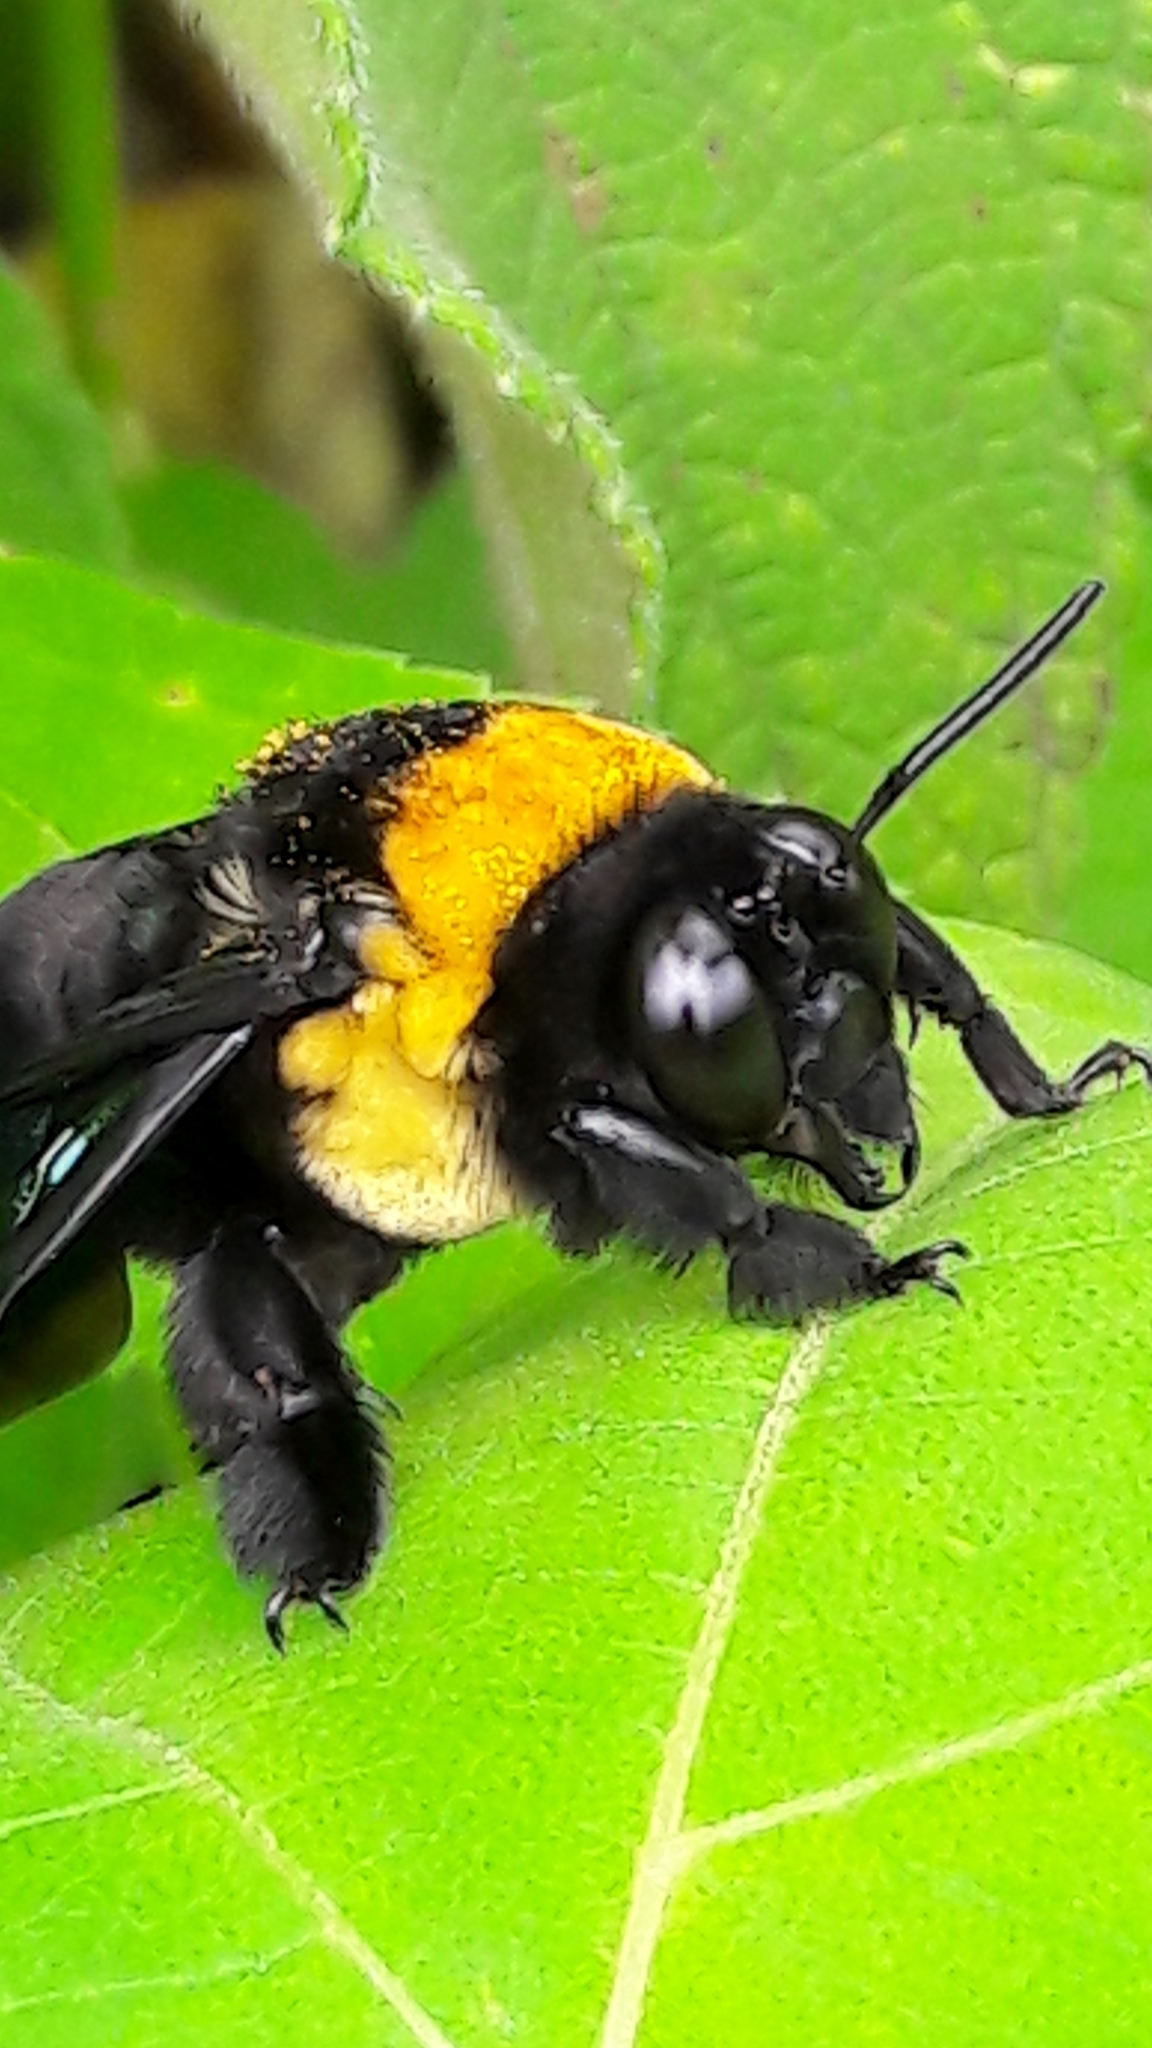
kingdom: Animalia
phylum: Arthropoda
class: Insecta
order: Hymenoptera
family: Apidae
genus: Centris
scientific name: Centris scopipes
